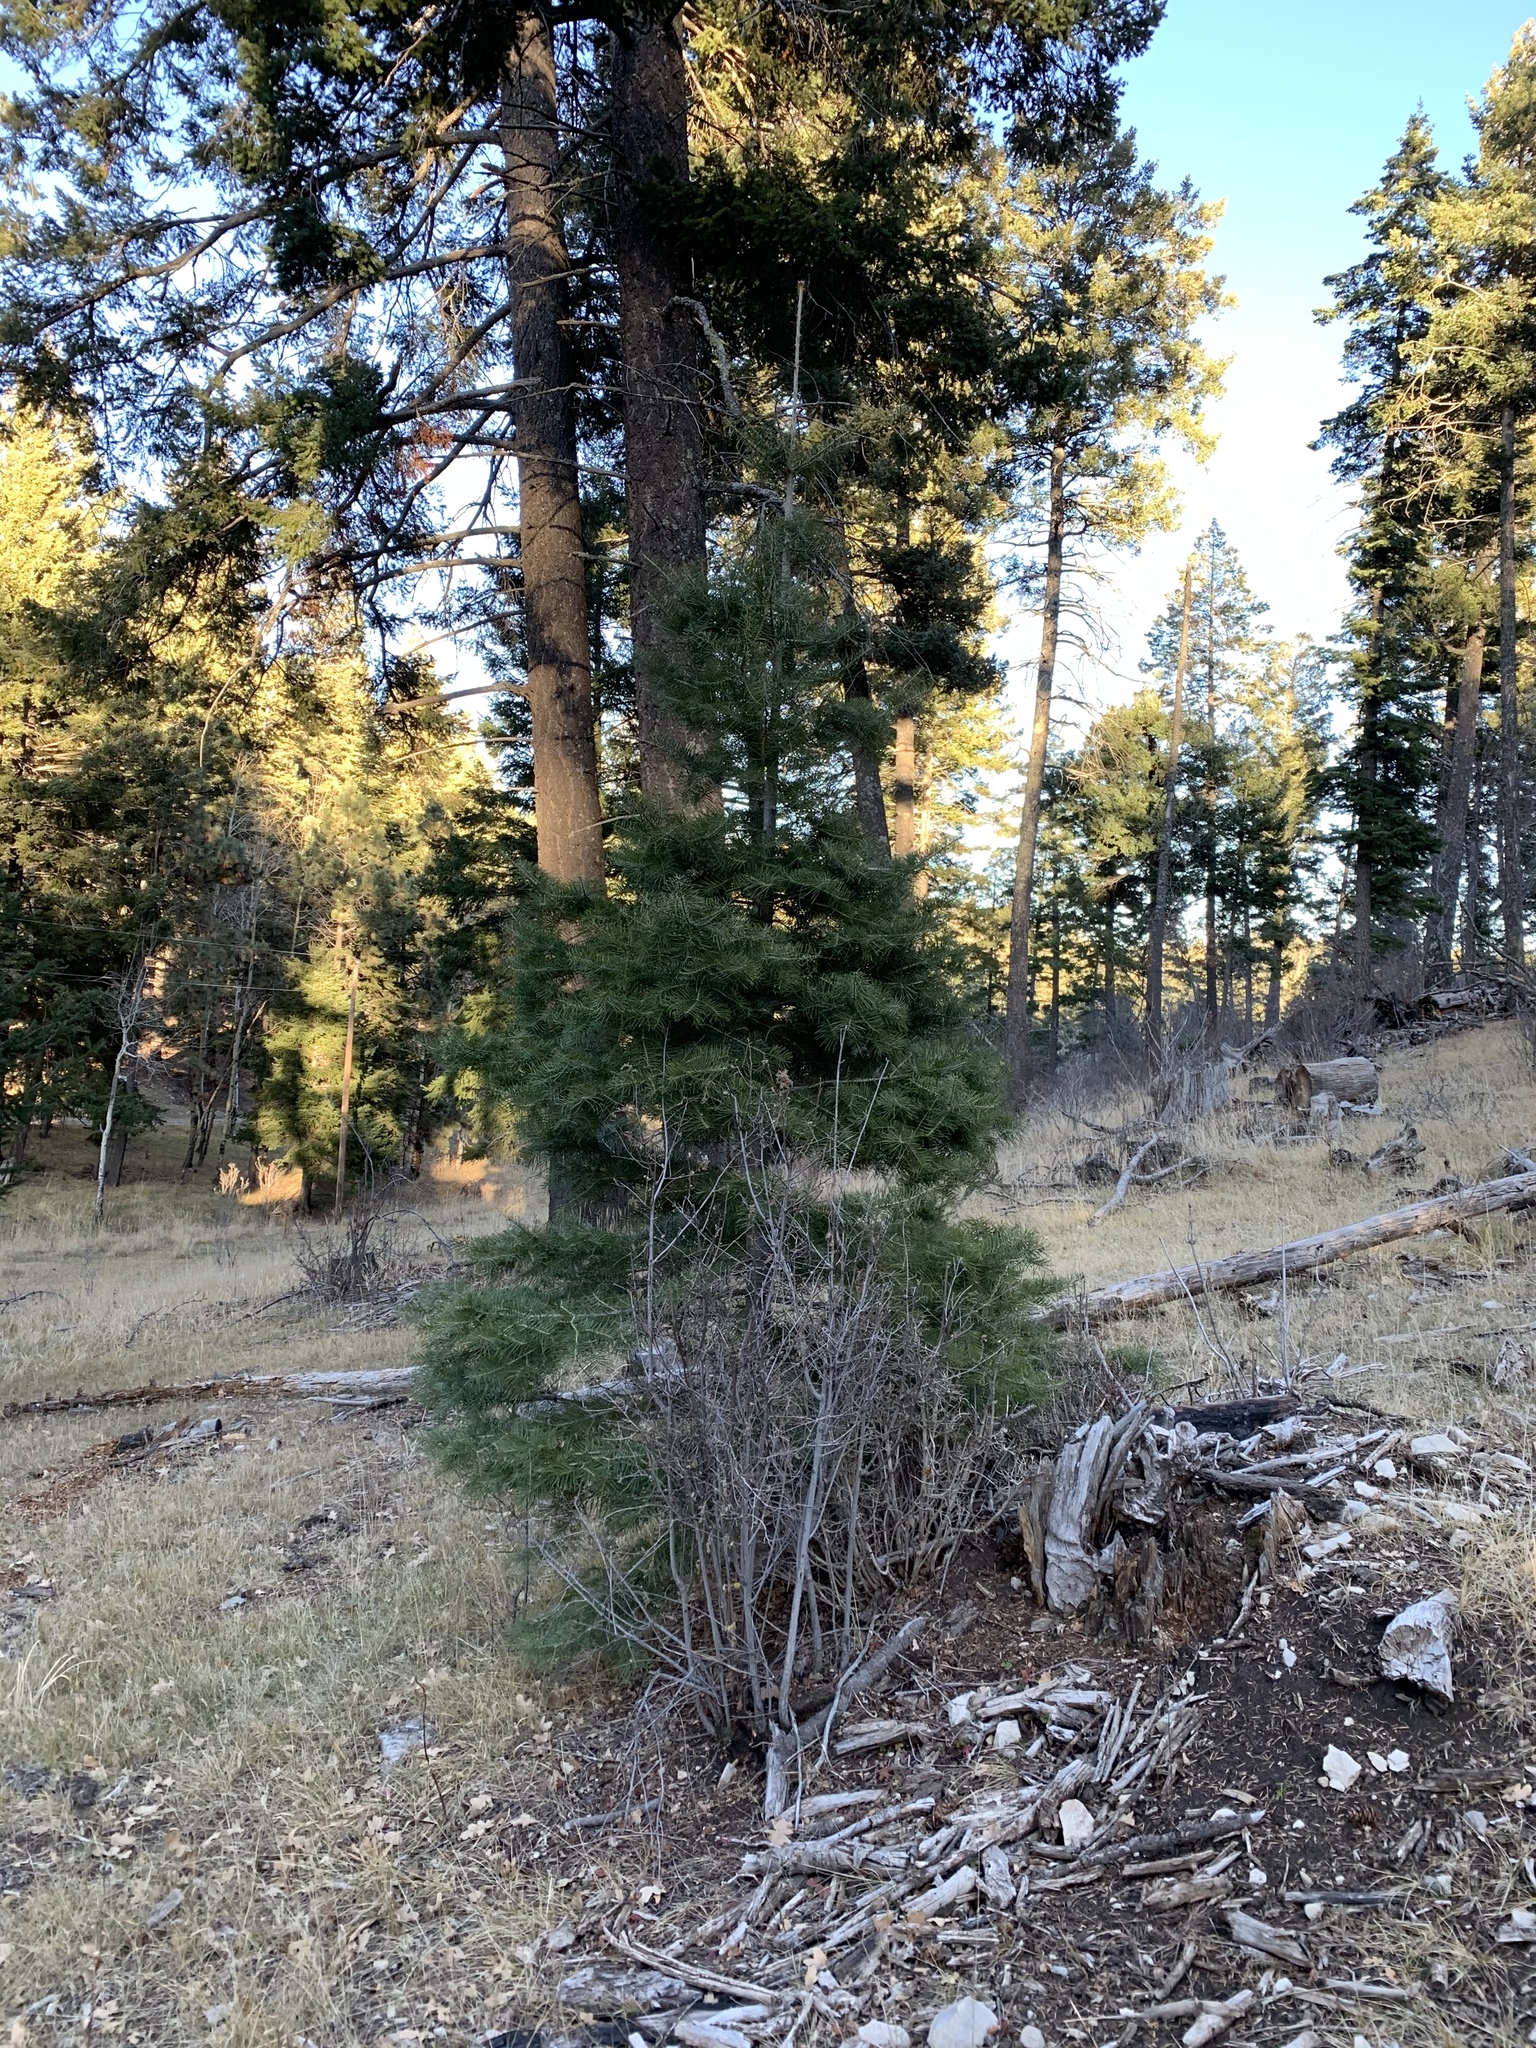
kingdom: Plantae
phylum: Tracheophyta
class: Pinopsida
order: Pinales
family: Pinaceae
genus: Abies
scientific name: Abies concolor
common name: Colorado fir
